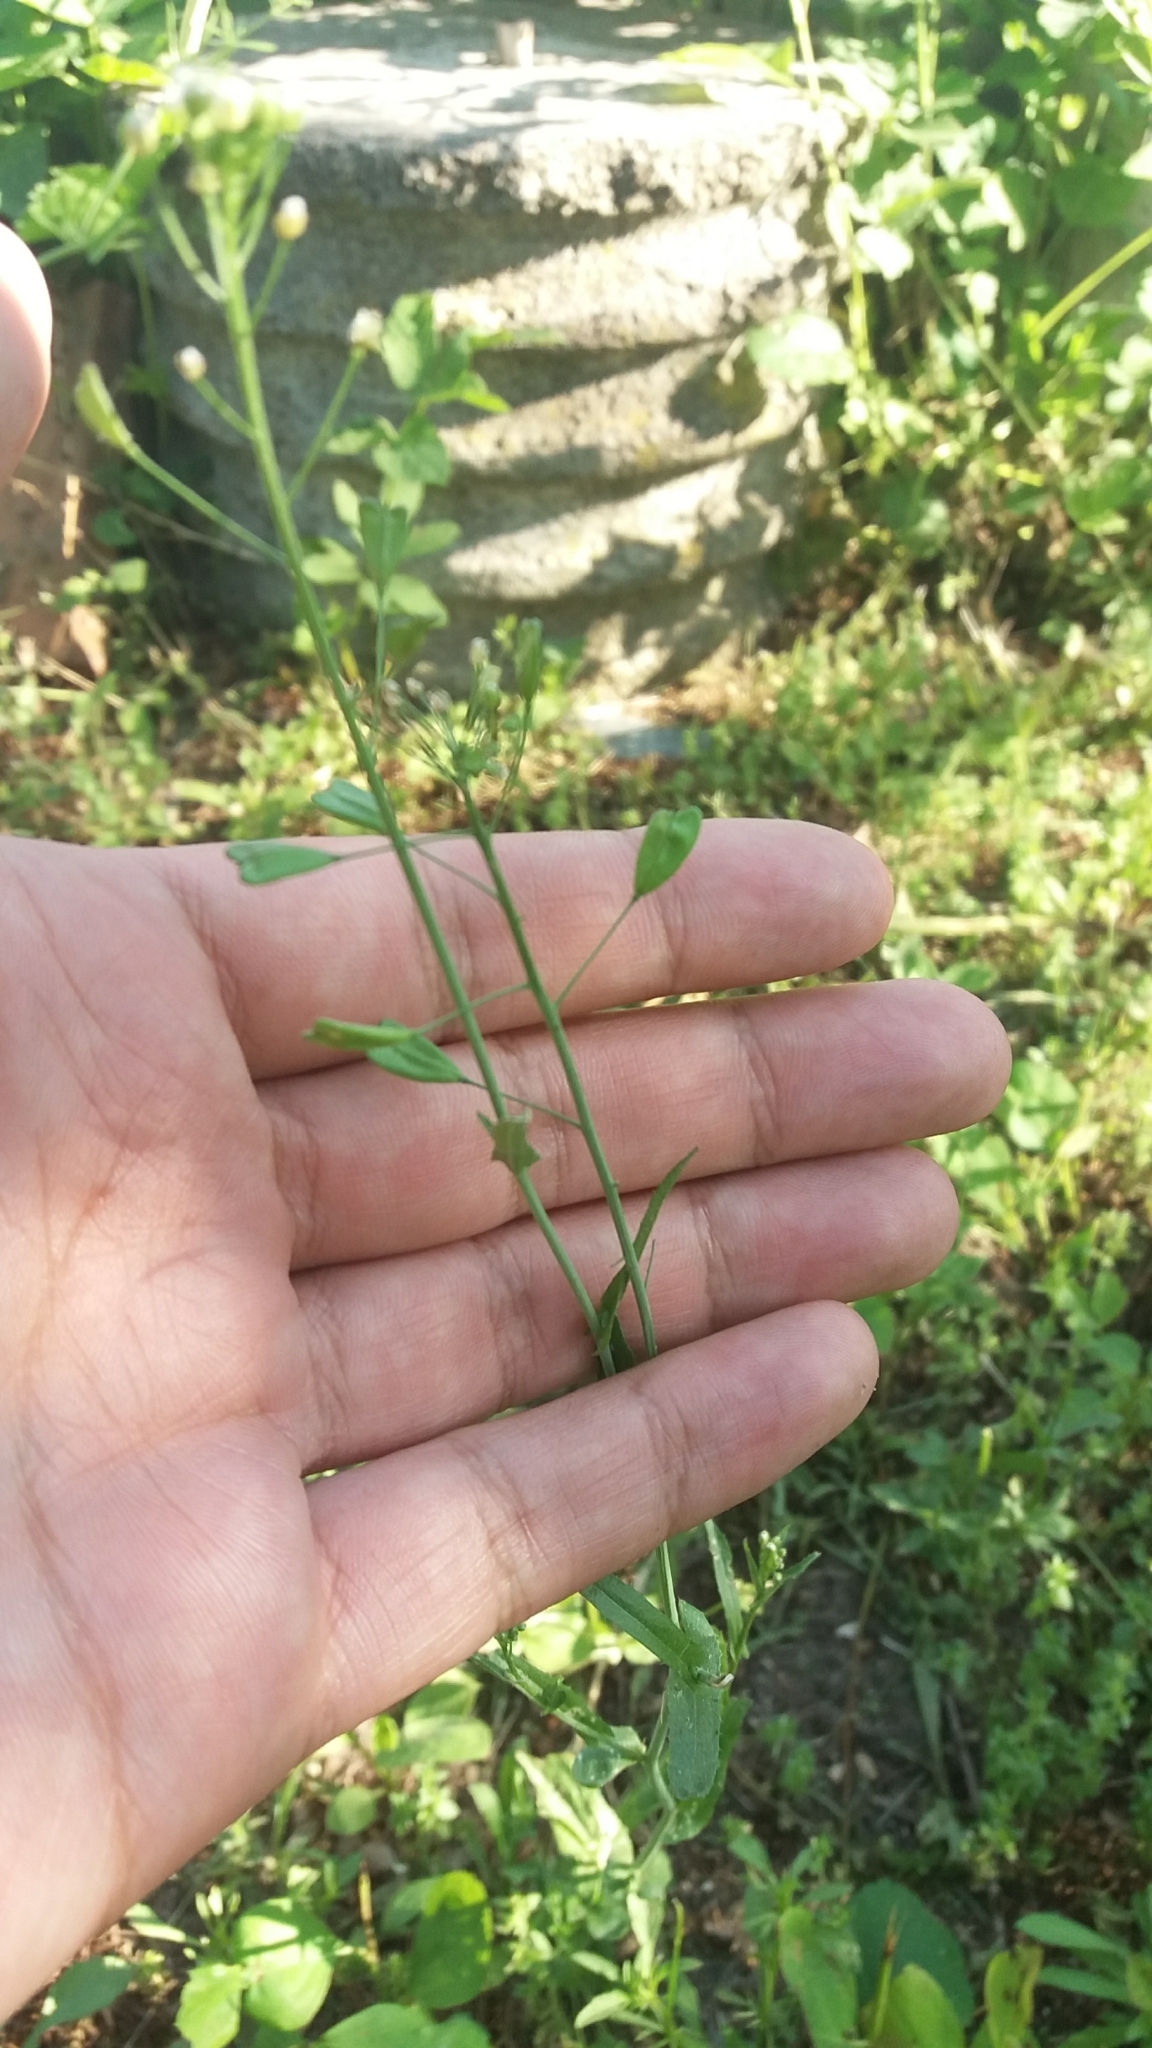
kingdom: Plantae
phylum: Tracheophyta
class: Magnoliopsida
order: Brassicales
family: Brassicaceae
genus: Capsella
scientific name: Capsella bursa-pastoris
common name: Shepherd's purse
